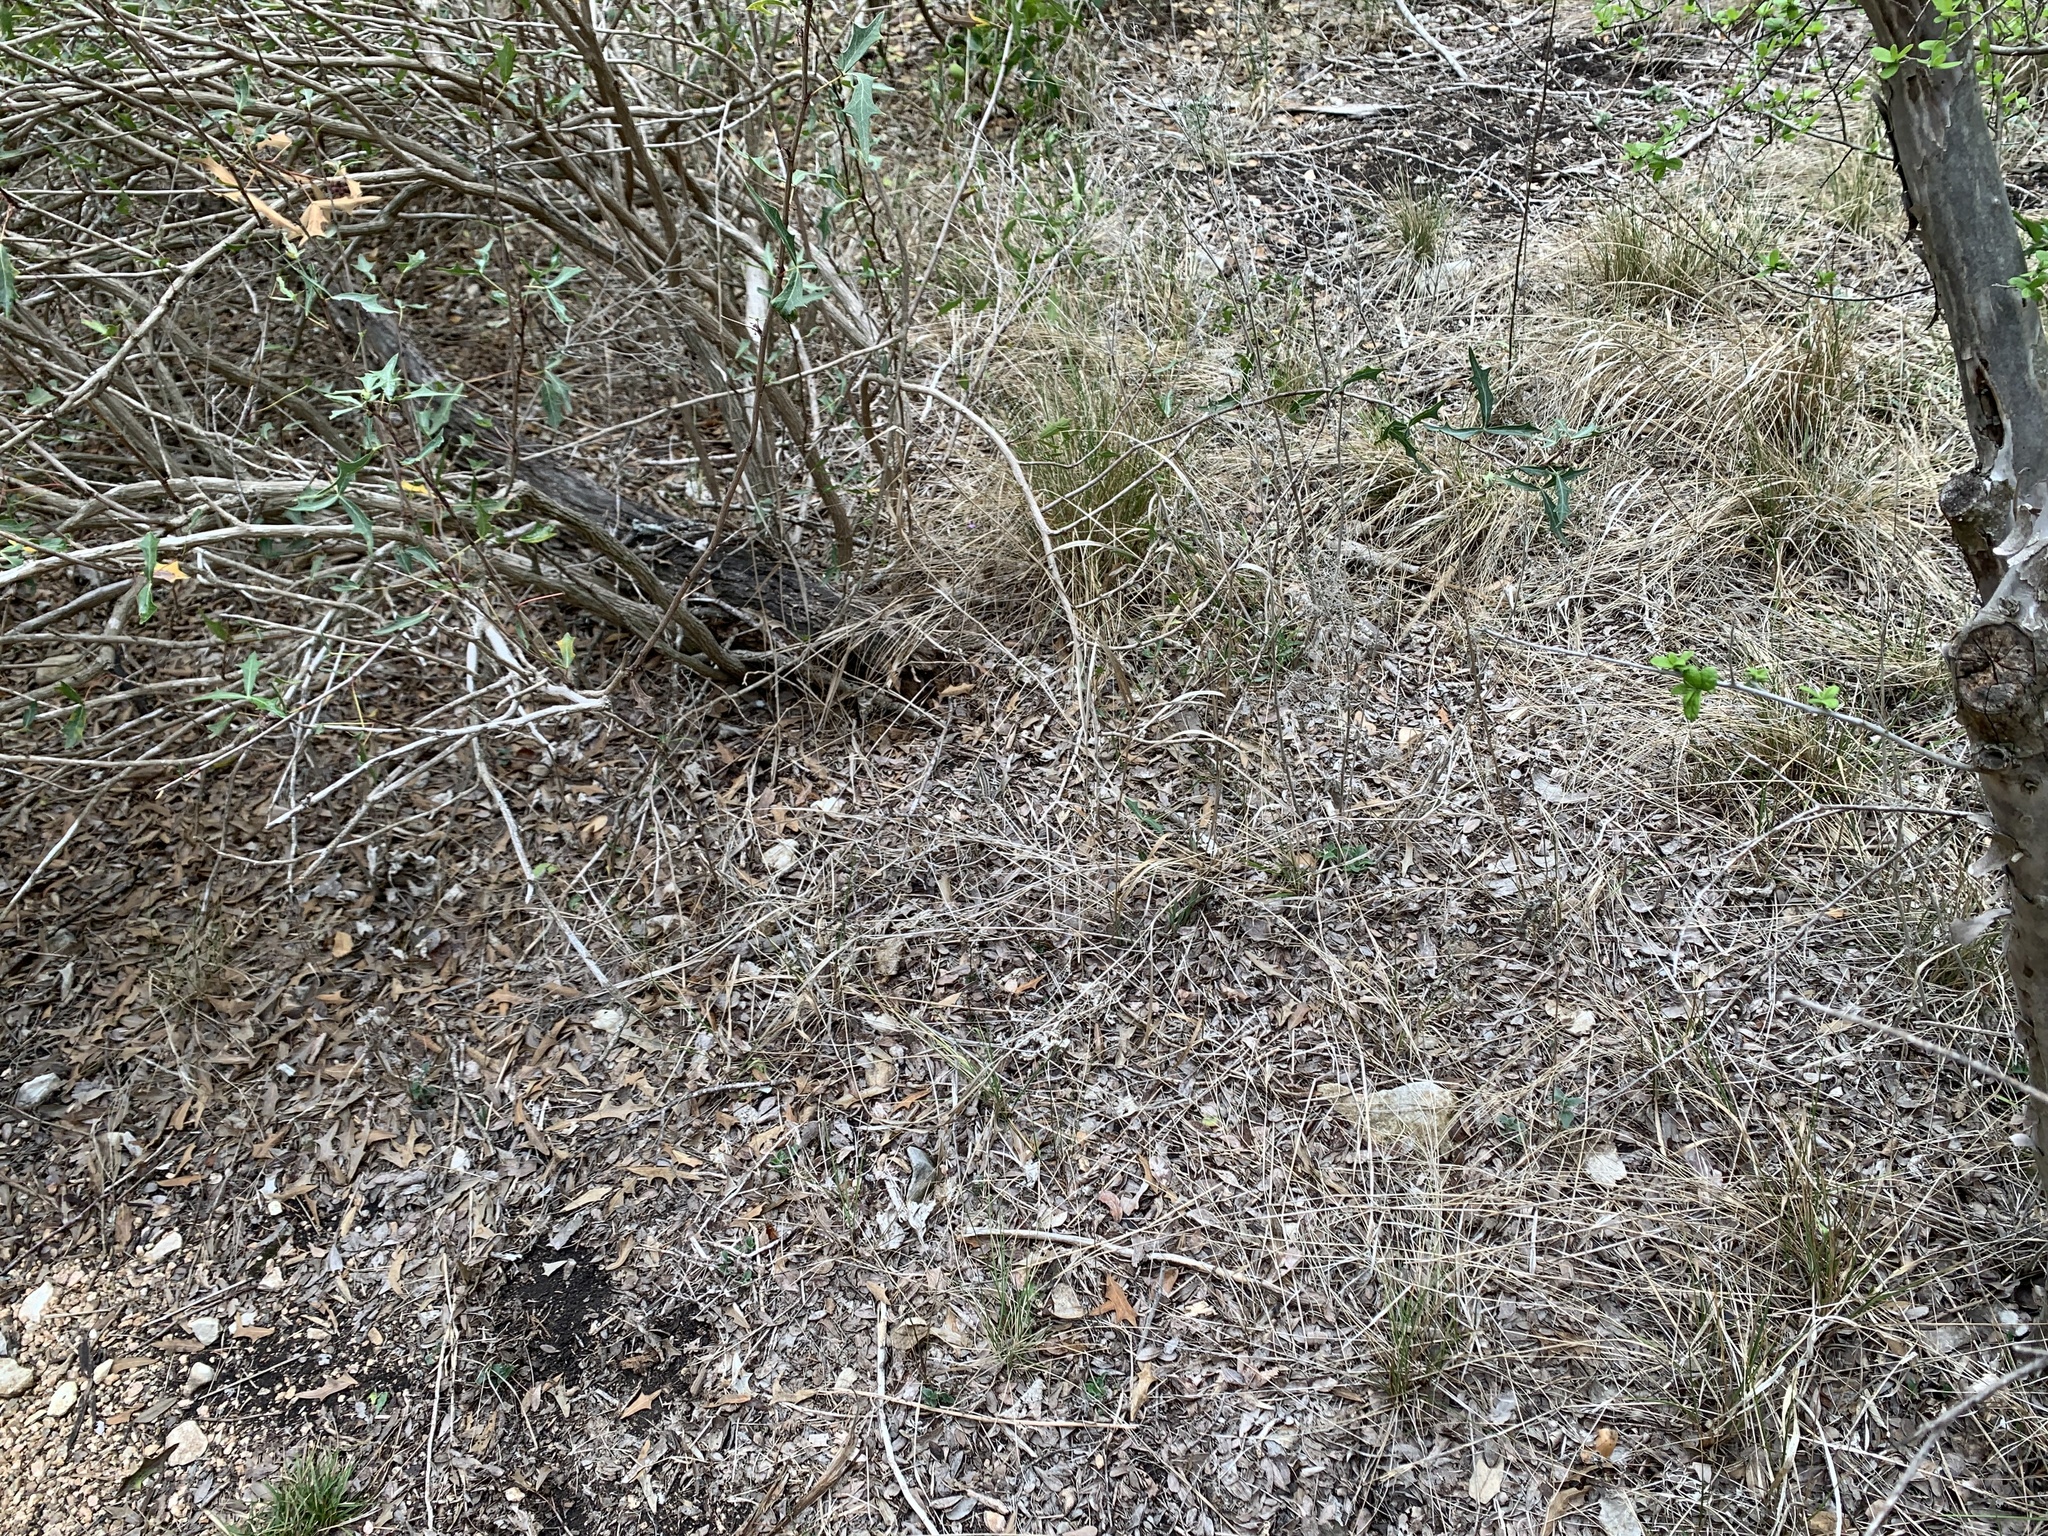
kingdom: Animalia
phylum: Chordata
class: Squamata
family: Phrynosomatidae
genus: Sceloporus
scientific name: Sceloporus variabilis
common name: Rosebelly lizard
